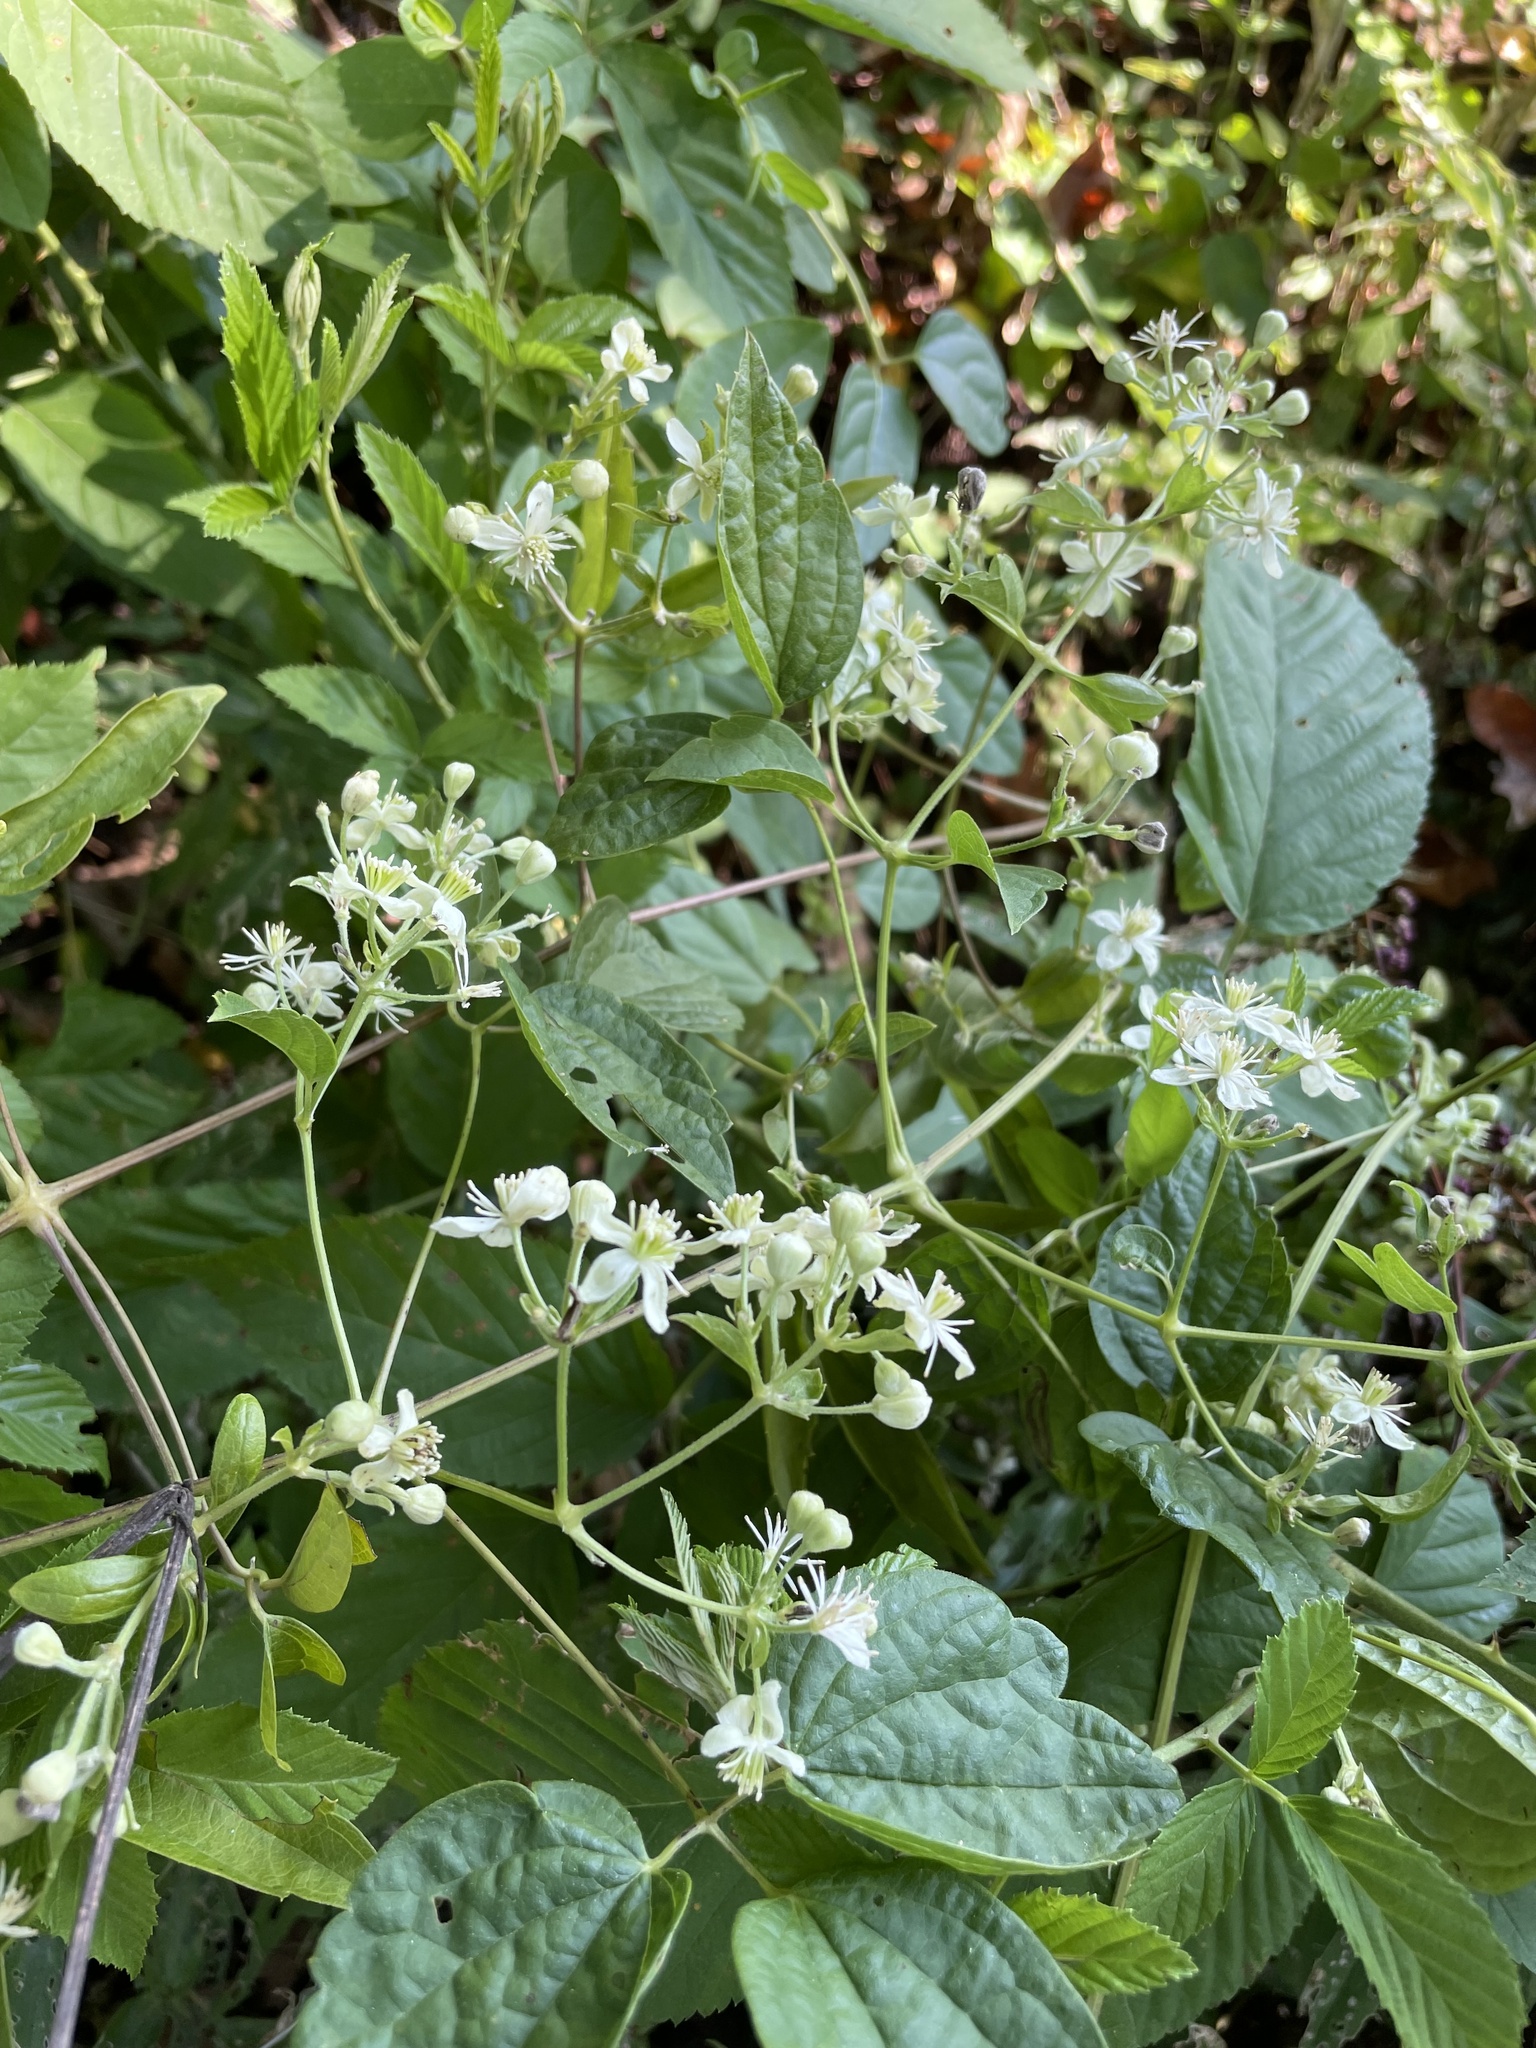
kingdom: Plantae
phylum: Tracheophyta
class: Magnoliopsida
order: Ranunculales
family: Ranunculaceae
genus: Clematis
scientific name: Clematis virginiana
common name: Virgin's-bower
